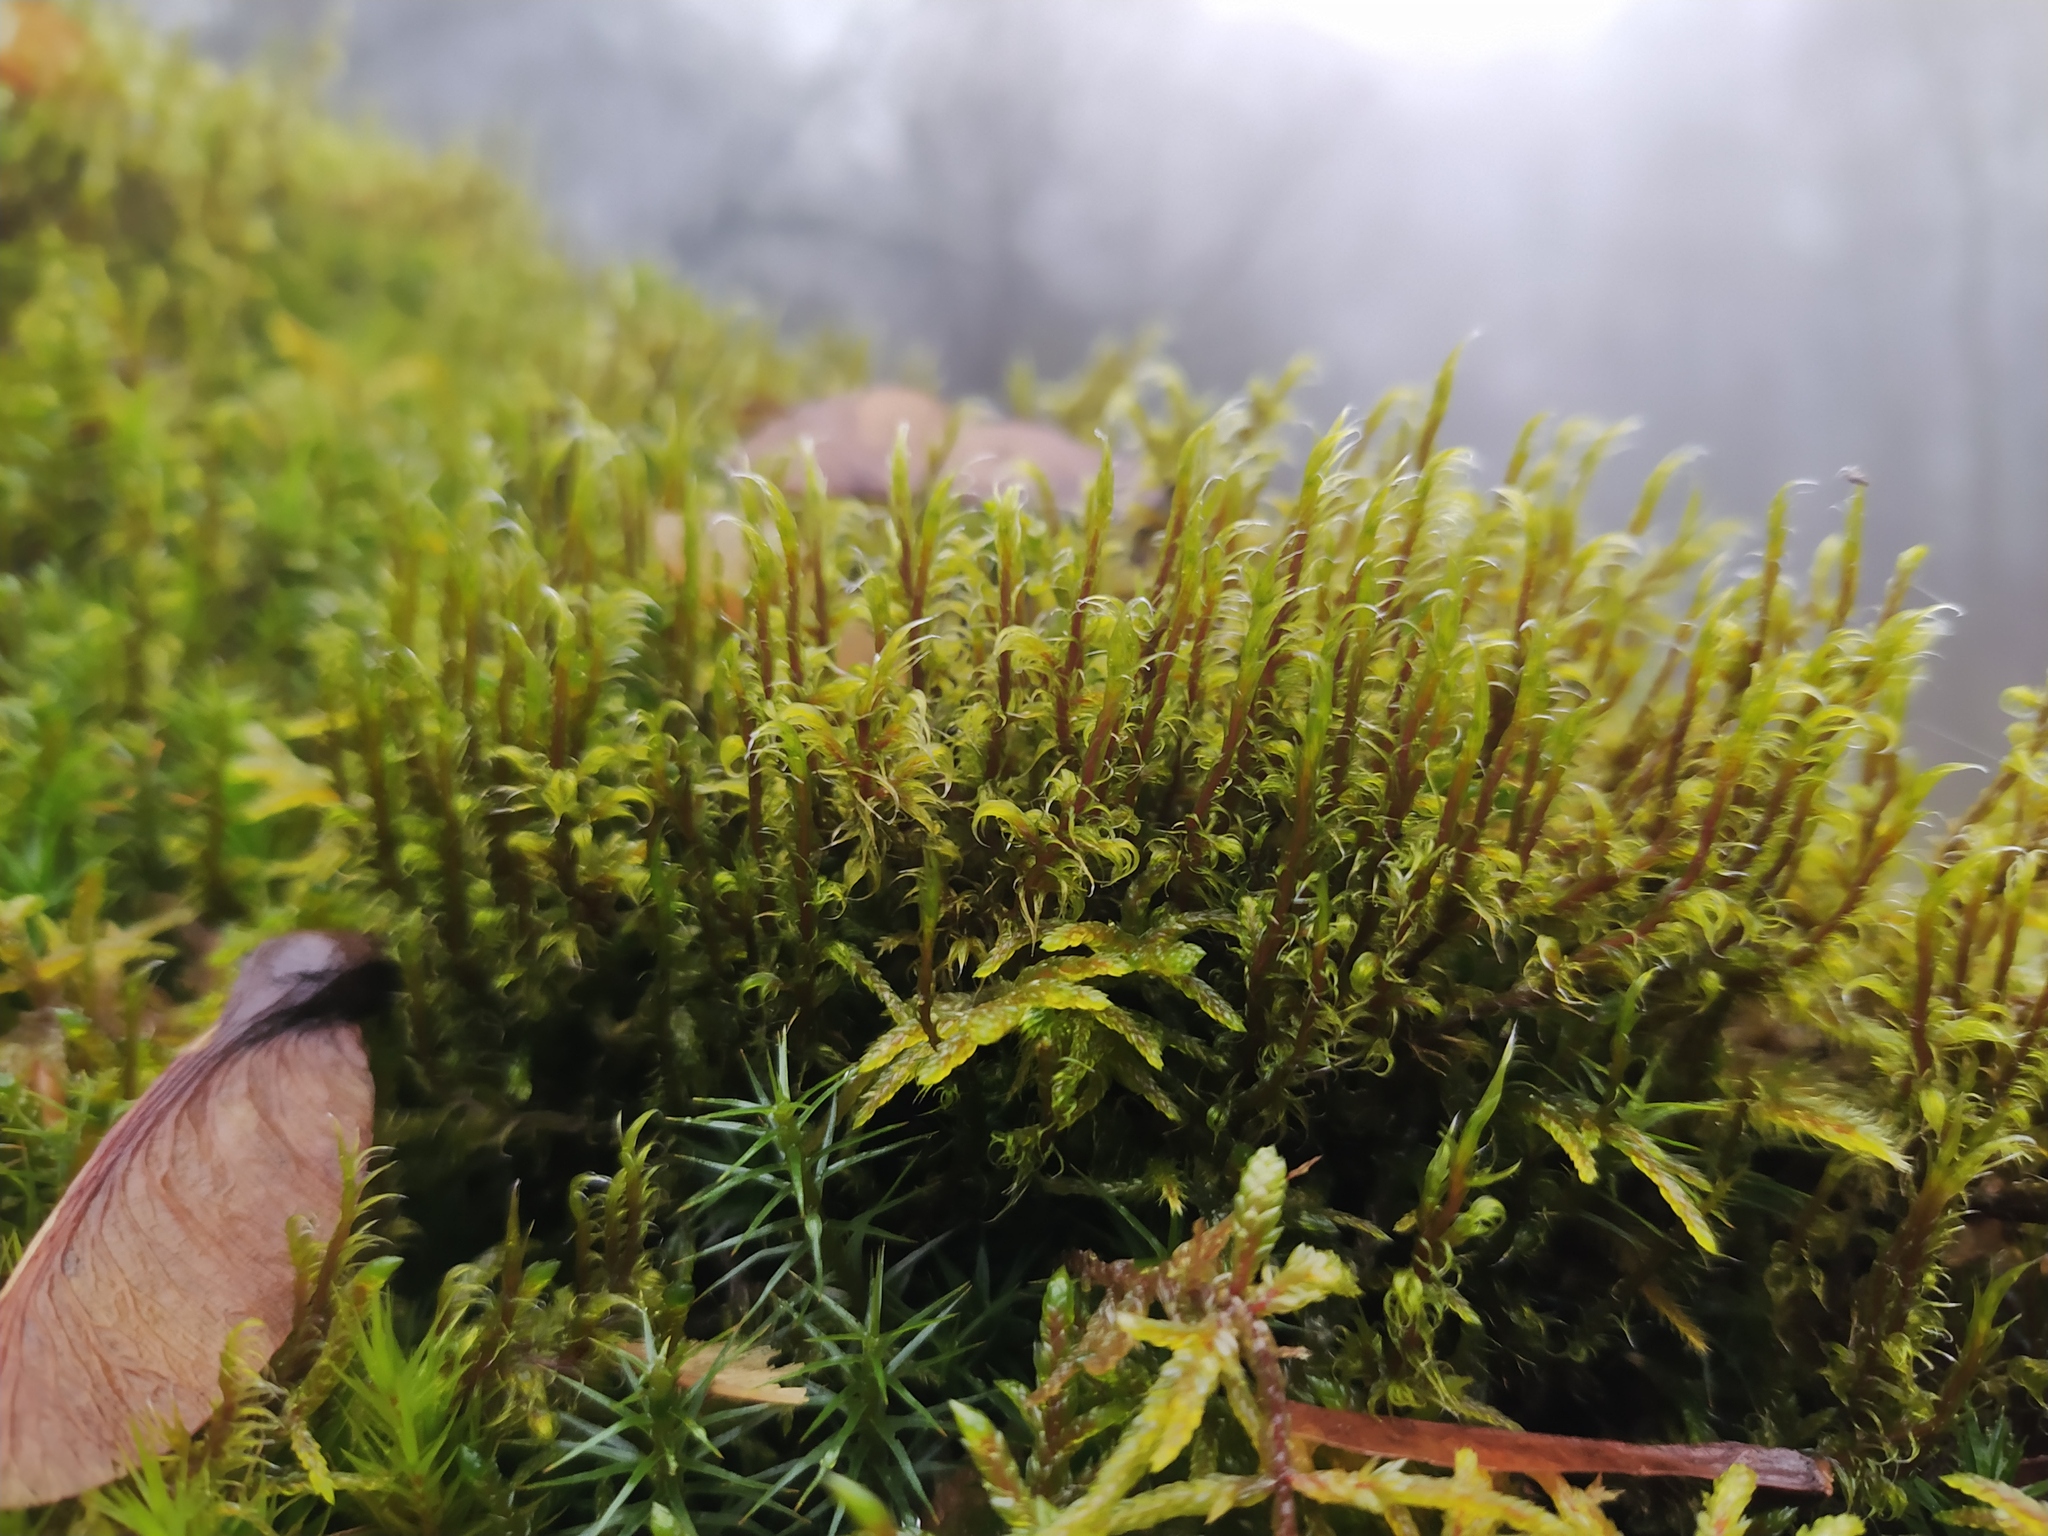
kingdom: Plantae
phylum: Bryophyta
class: Bryopsida
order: Grimmiales
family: Grimmiaceae
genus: Racomitrium
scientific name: Racomitrium lanuginosum
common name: Hoary rock moss
